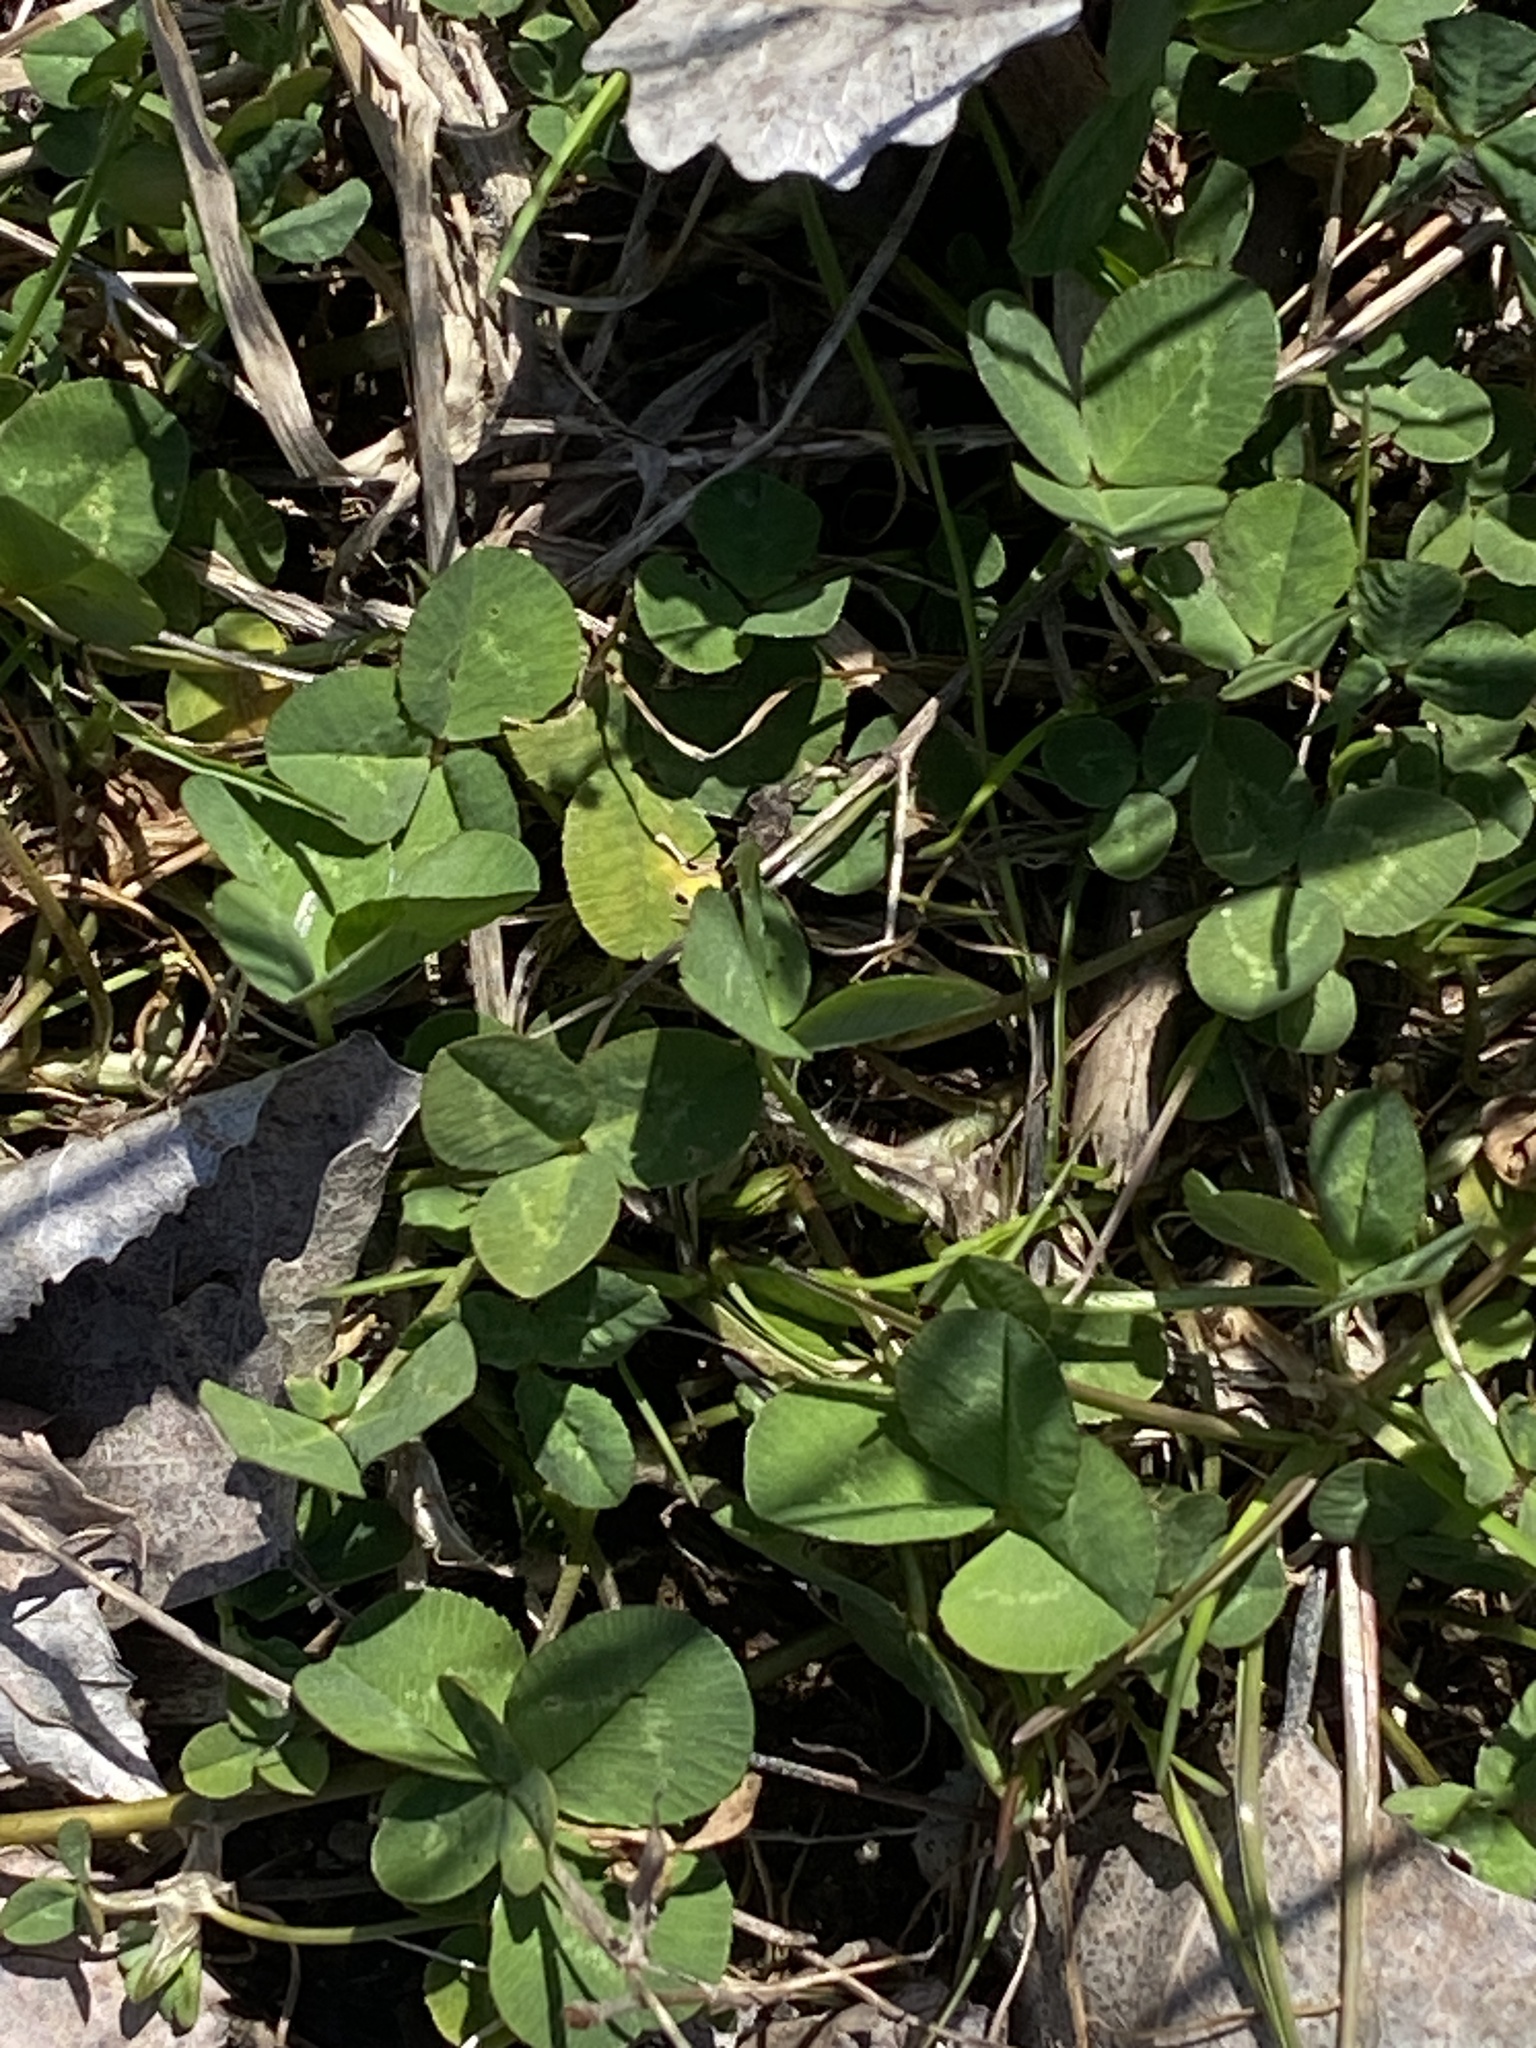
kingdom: Plantae
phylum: Tracheophyta
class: Magnoliopsida
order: Fabales
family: Fabaceae
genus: Trifolium
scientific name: Trifolium repens
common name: White clover
